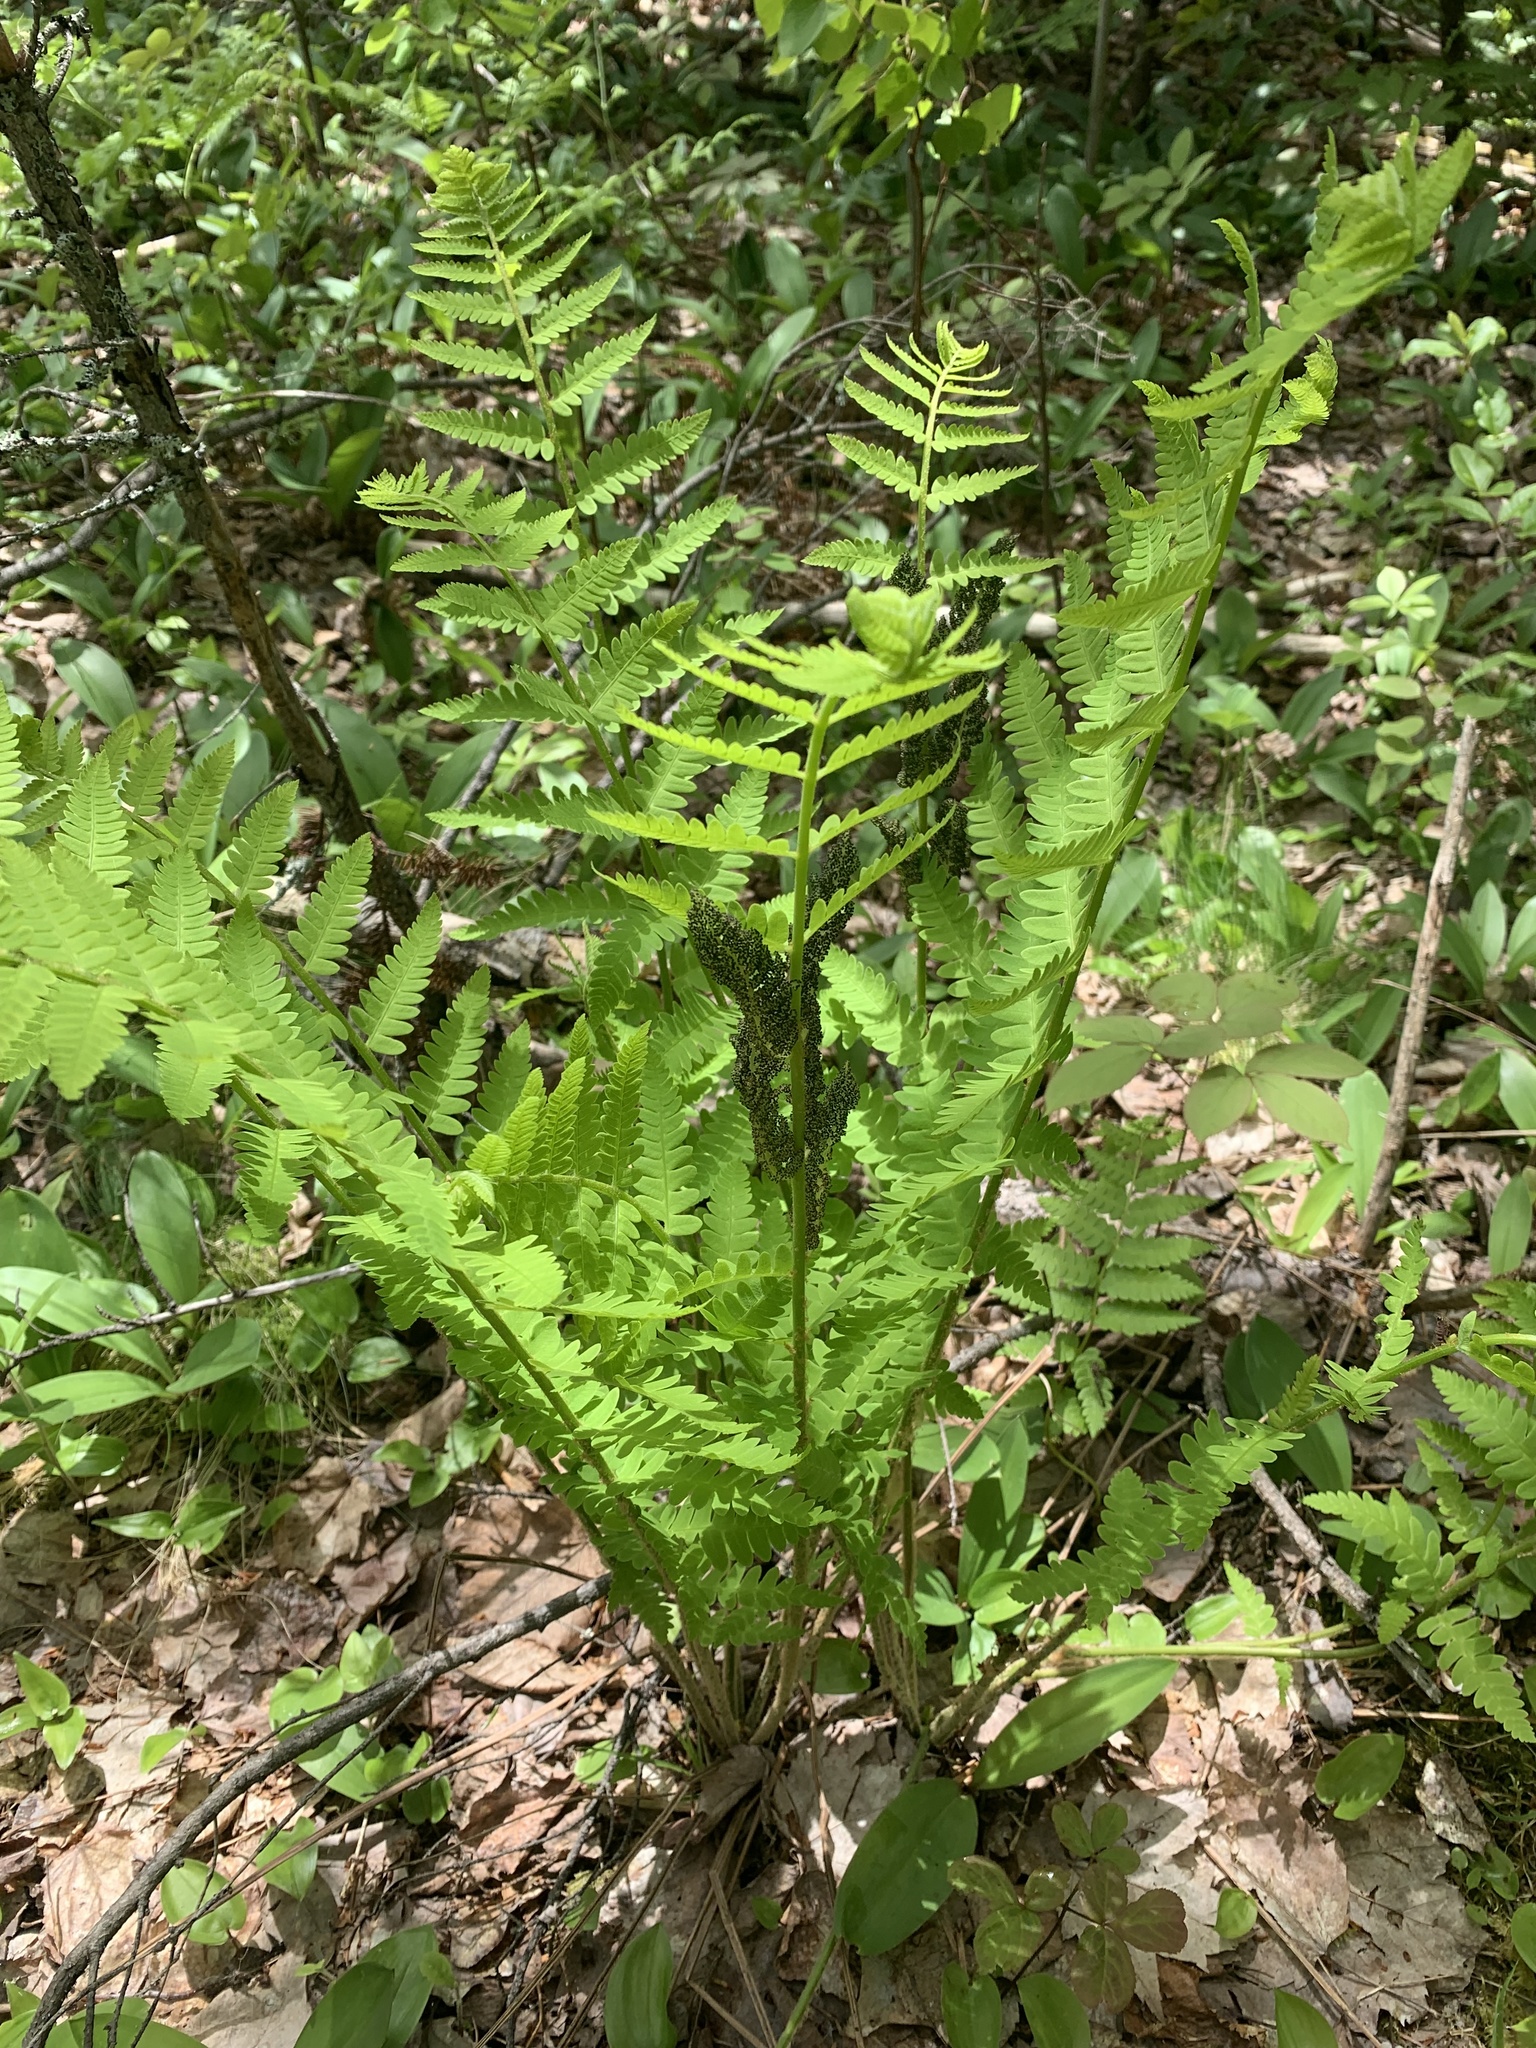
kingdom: Plantae
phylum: Tracheophyta
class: Polypodiopsida
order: Osmundales
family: Osmundaceae
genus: Claytosmunda
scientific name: Claytosmunda claytoniana
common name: Clayton's fern
